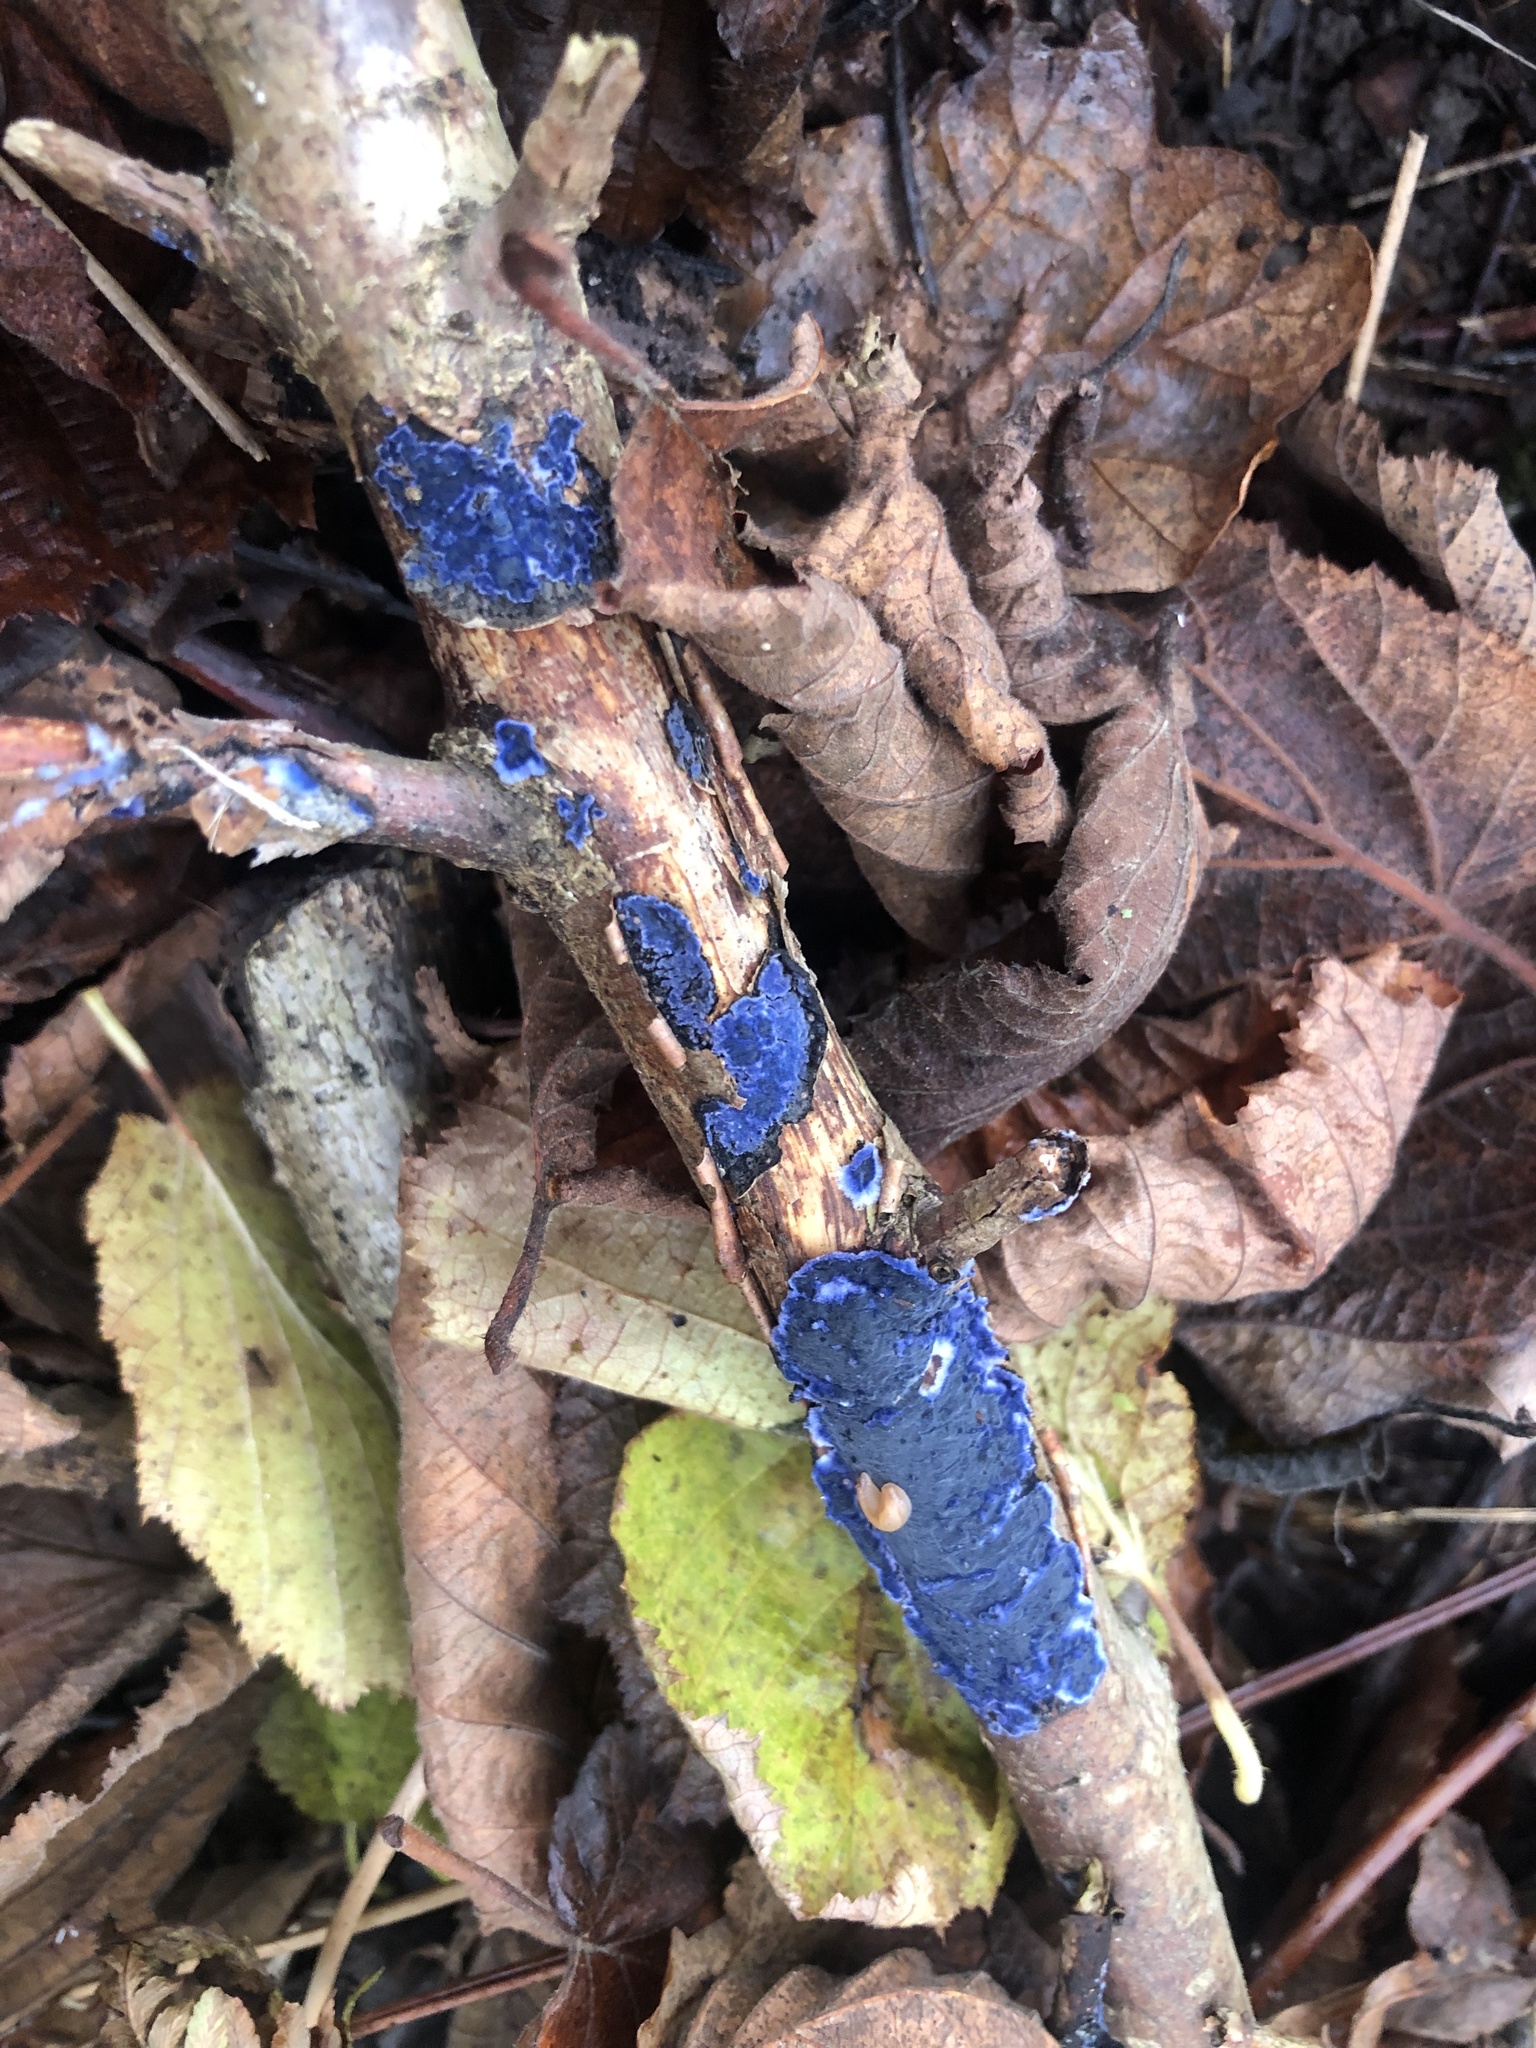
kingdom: Fungi
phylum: Basidiomycota
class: Agaricomycetes
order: Polyporales
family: Phanerochaetaceae
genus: Terana
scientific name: Terana coerulea
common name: Cobalt crust
